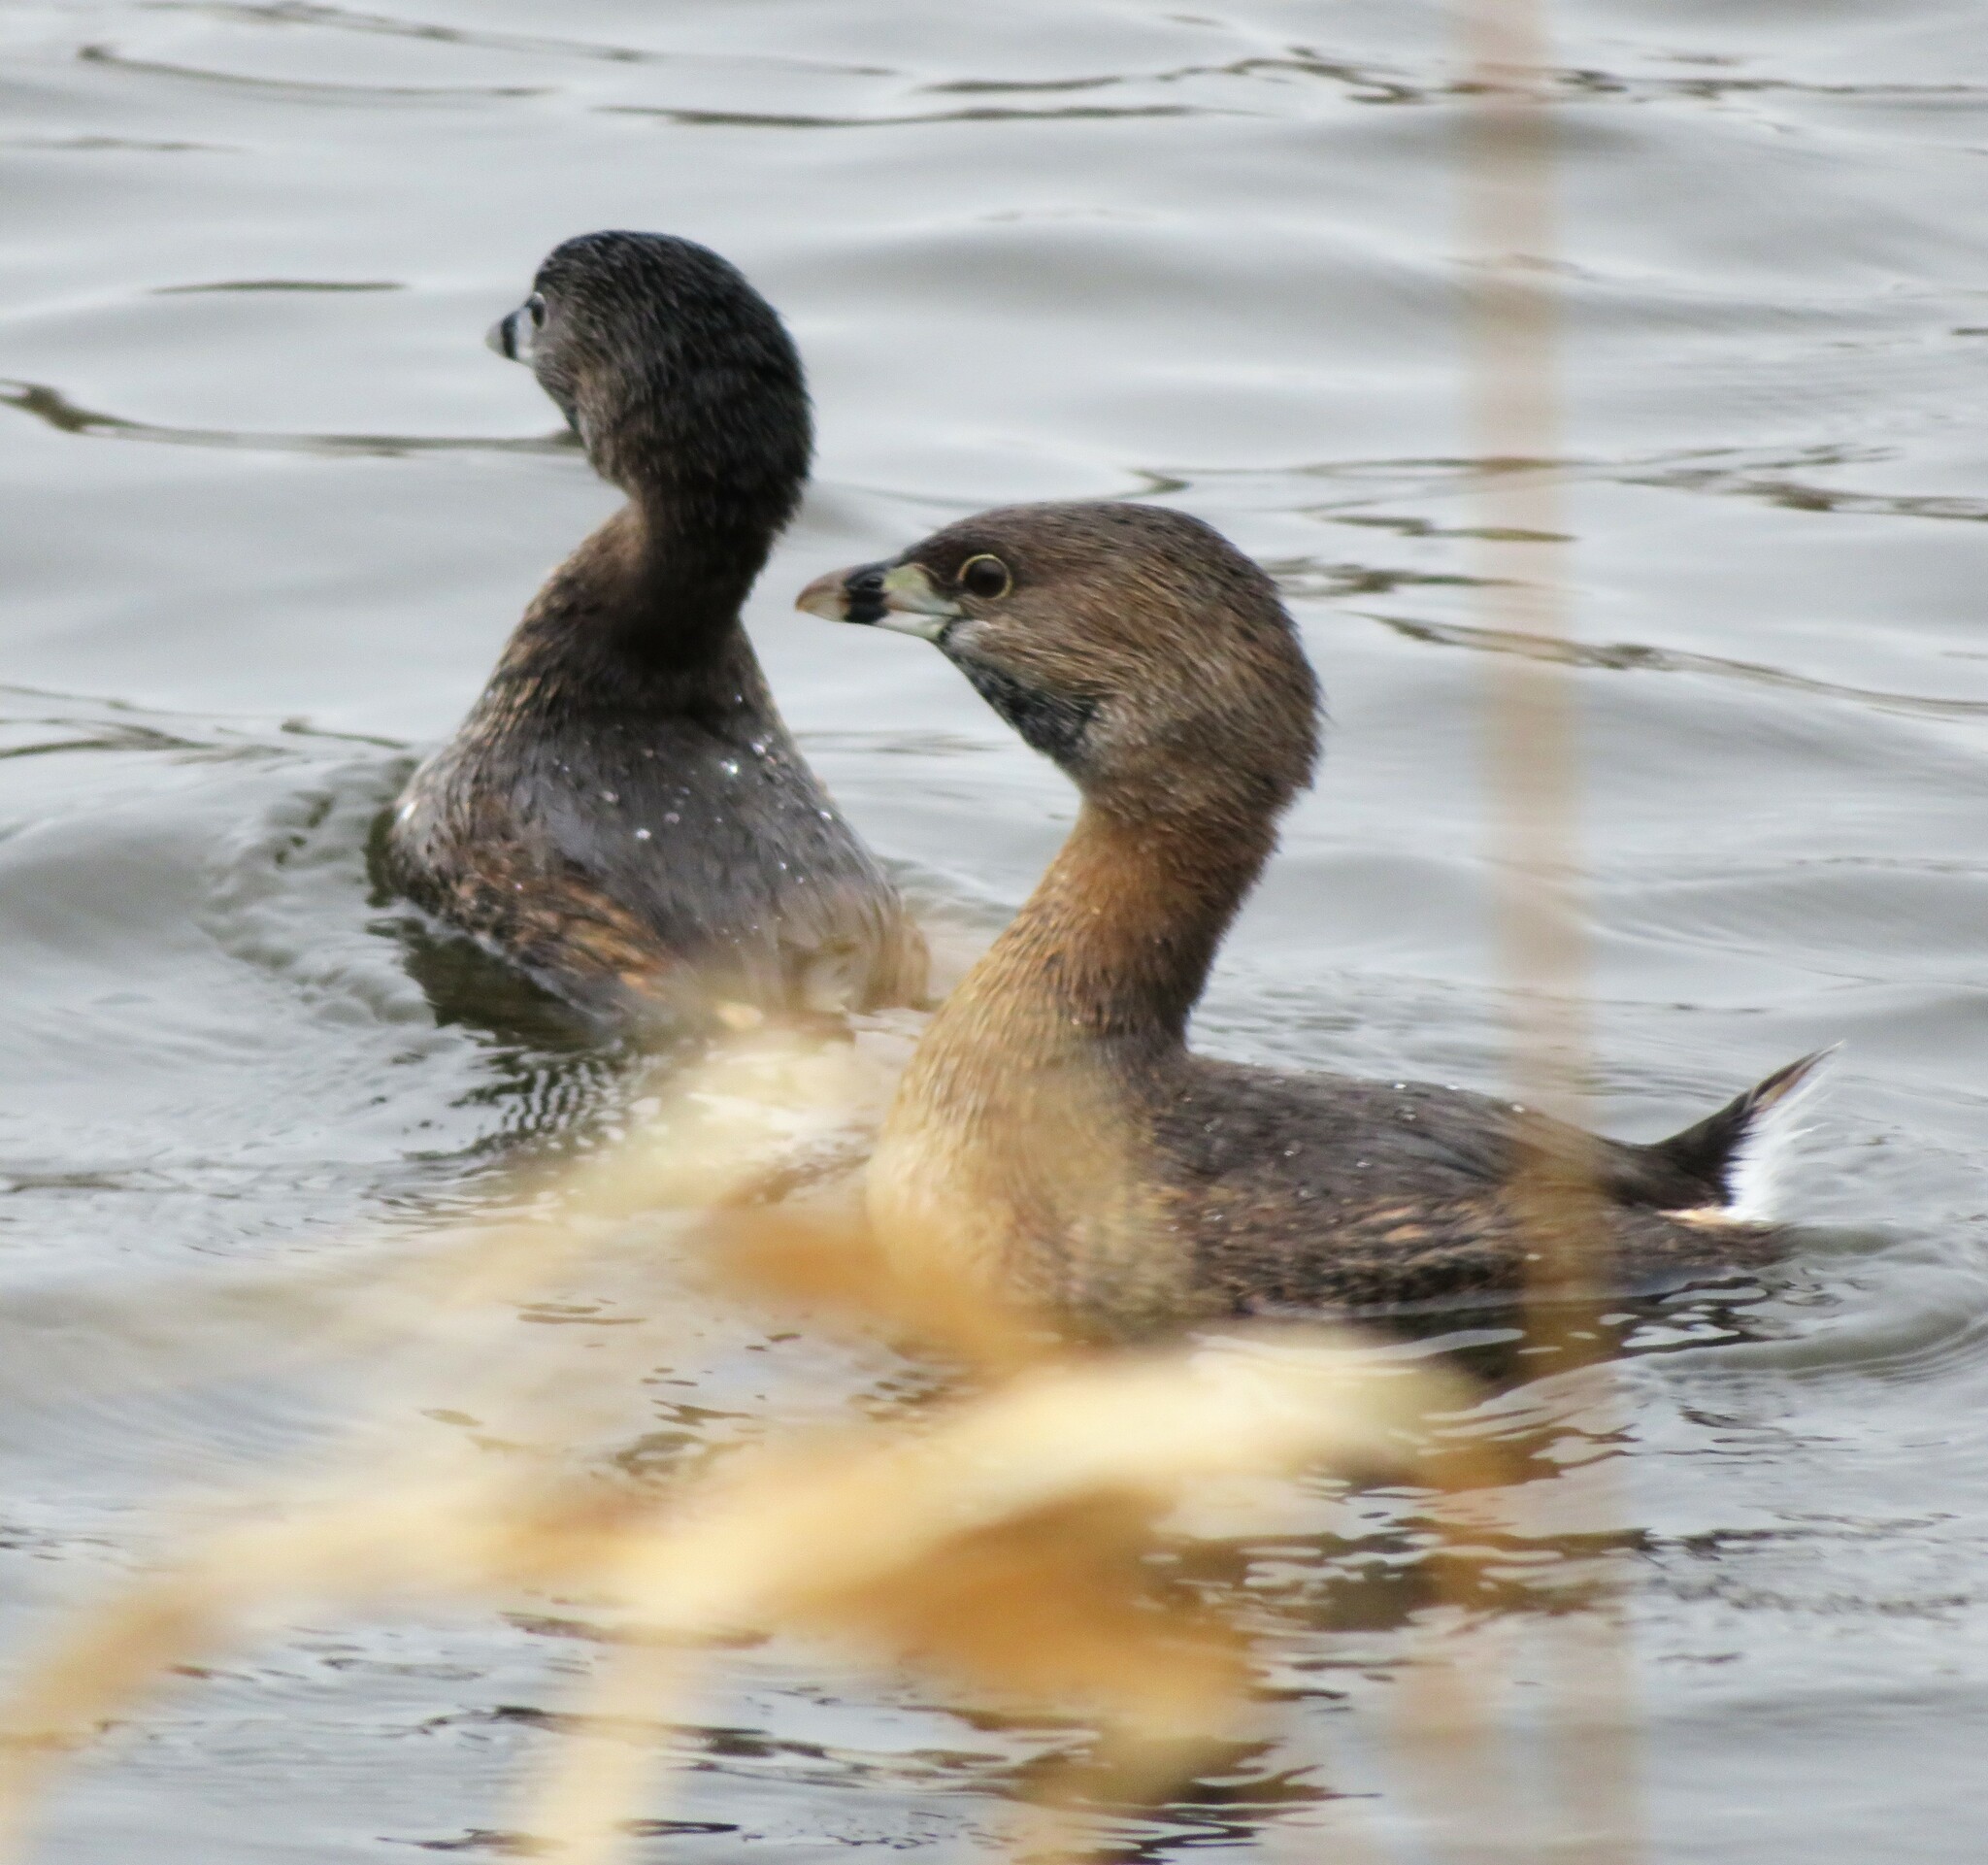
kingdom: Animalia
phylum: Chordata
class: Aves
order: Podicipediformes
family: Podicipedidae
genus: Podilymbus
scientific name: Podilymbus podiceps
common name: Pied-billed grebe
